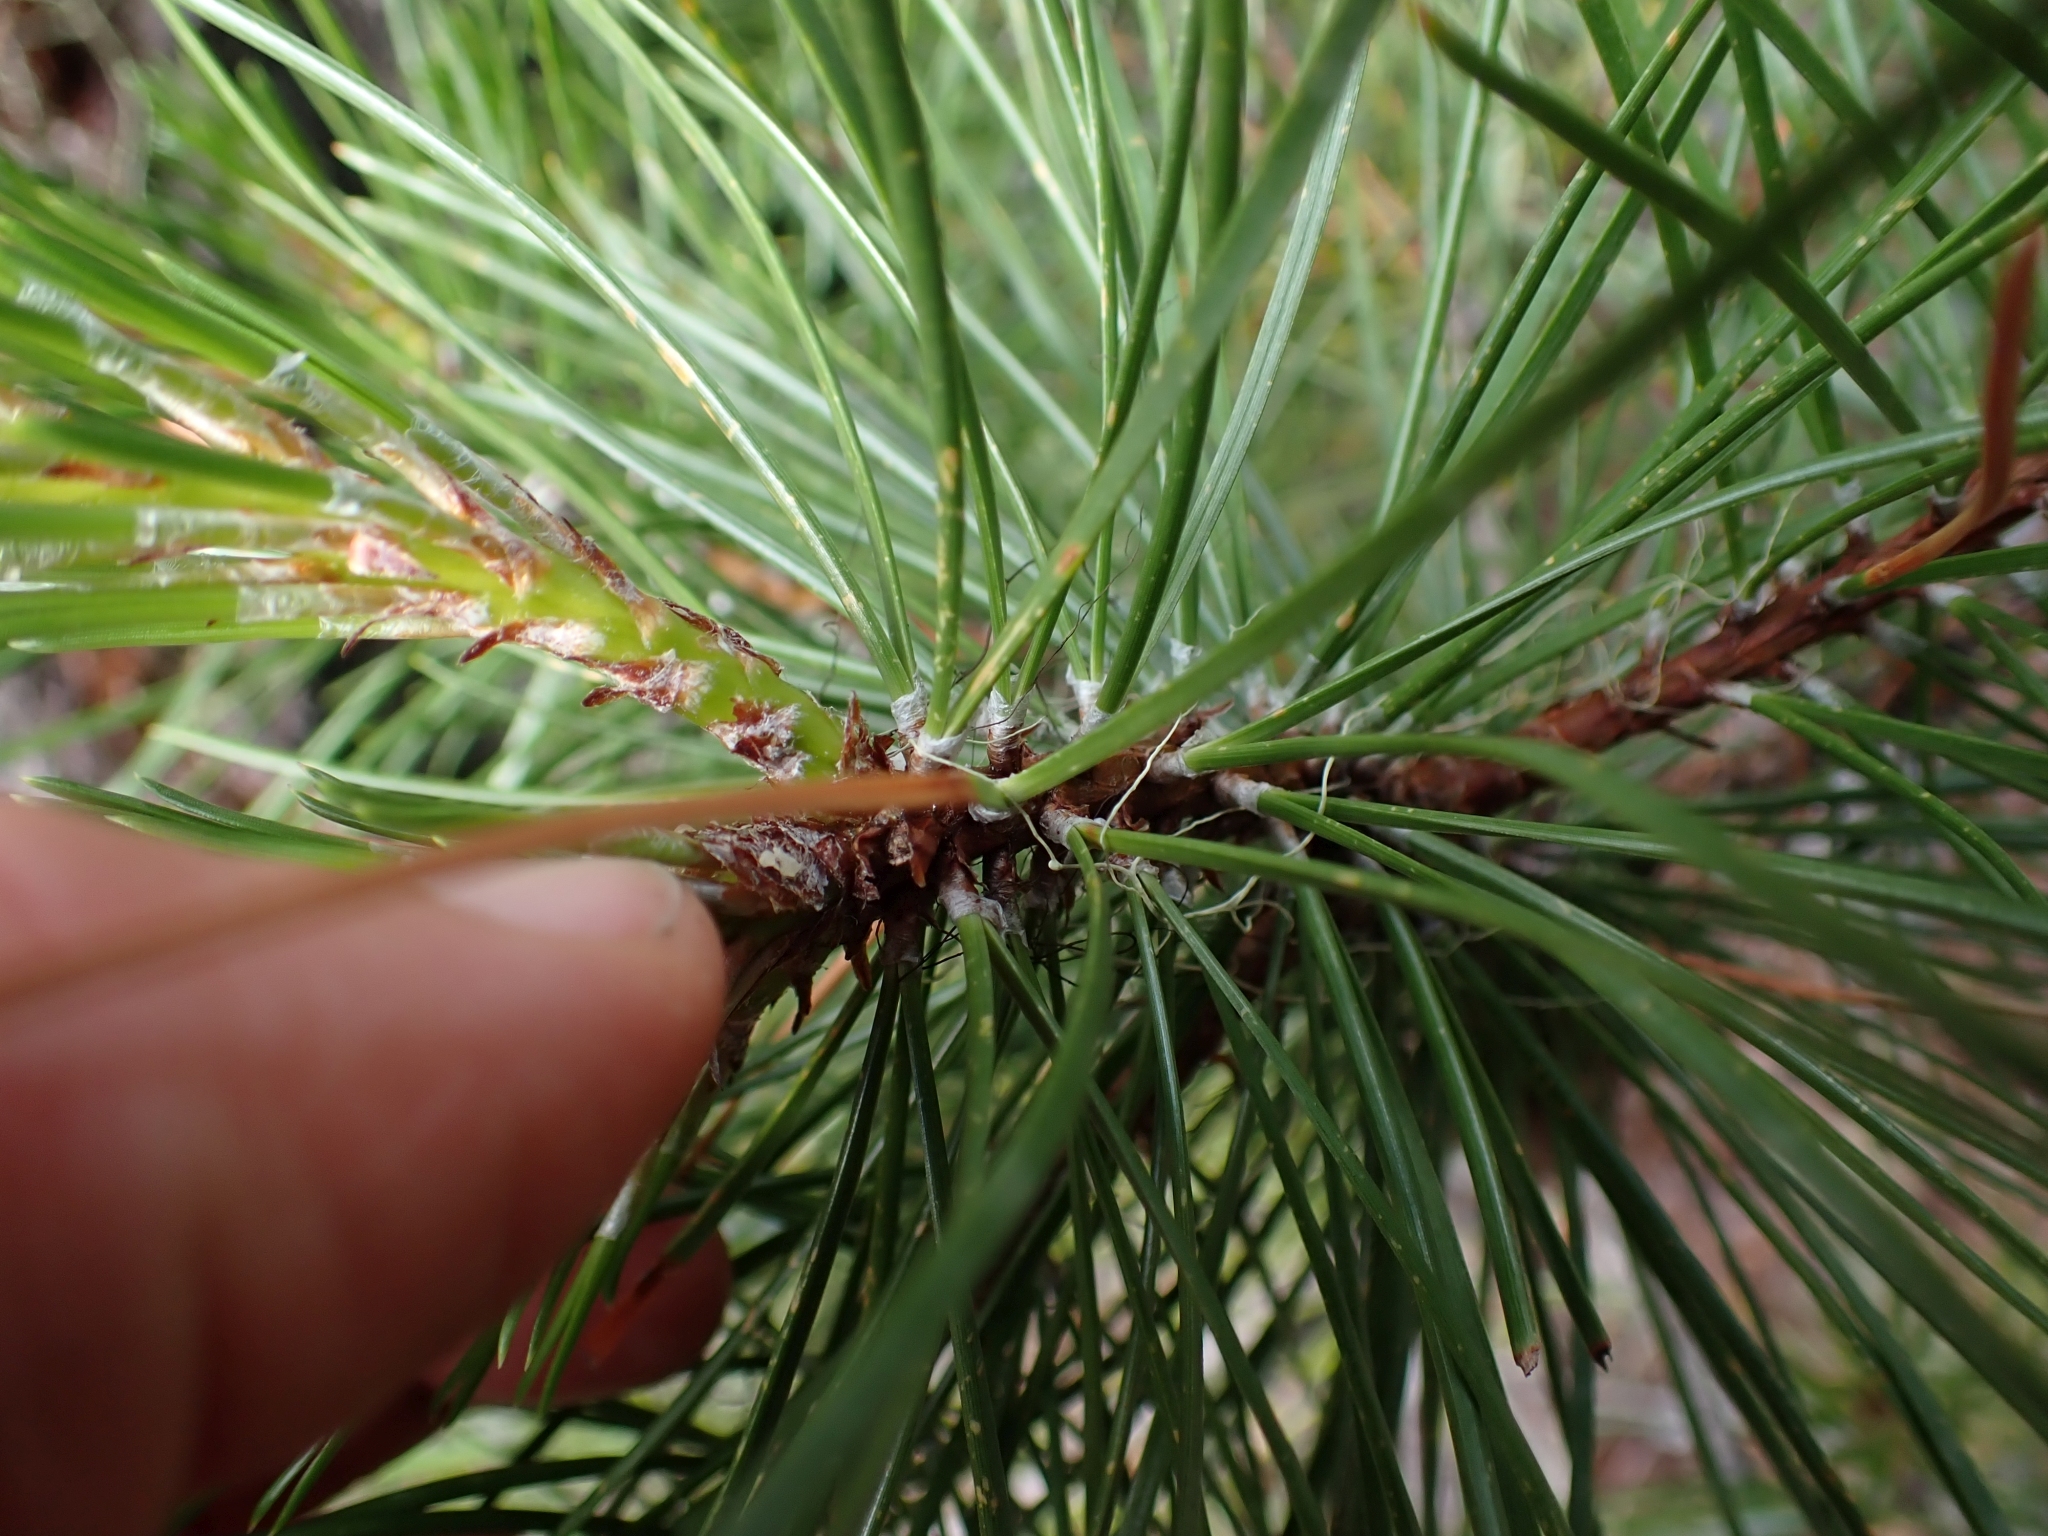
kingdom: Plantae
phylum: Tracheophyta
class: Pinopsida
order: Pinales
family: Pinaceae
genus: Pinus
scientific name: Pinus contorta
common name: Lodgepole pine
